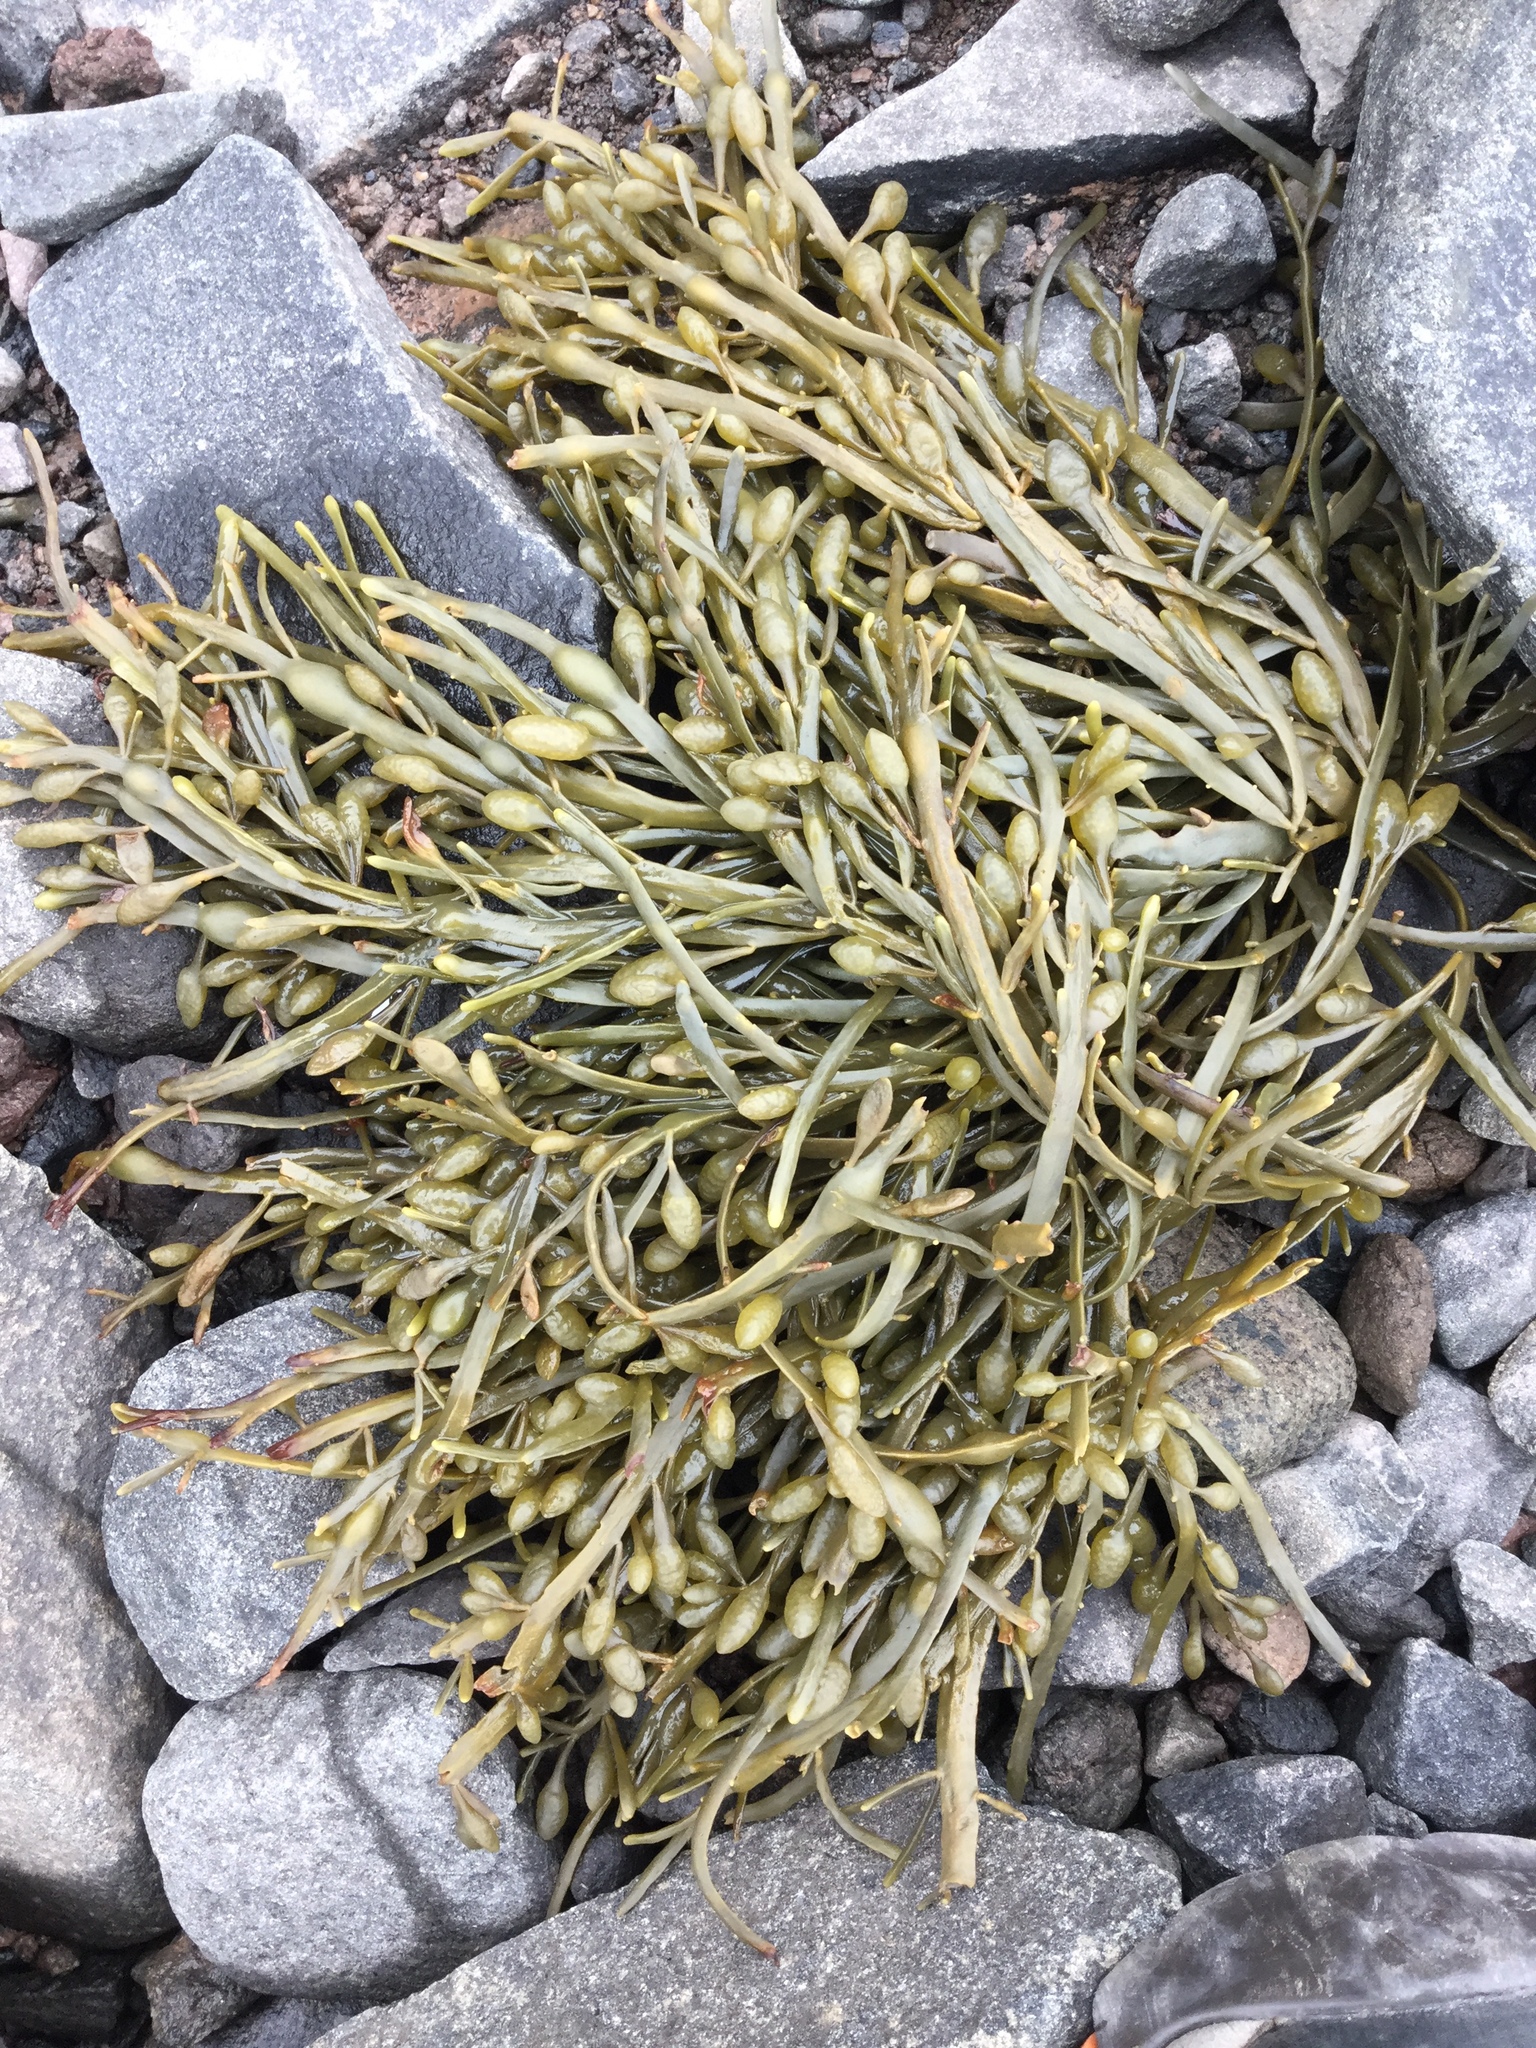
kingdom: Chromista
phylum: Ochrophyta
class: Phaeophyceae
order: Fucales
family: Fucaceae
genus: Ascophyllum
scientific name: Ascophyllum nodosum
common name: Knotted wrack
